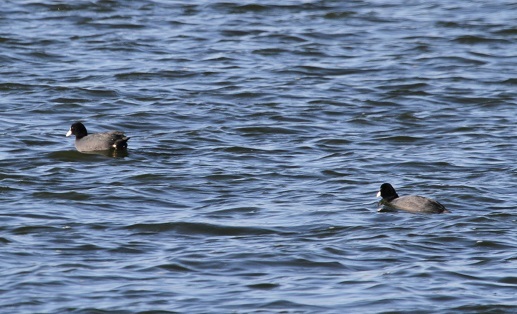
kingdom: Animalia
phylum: Chordata
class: Aves
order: Gruiformes
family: Rallidae
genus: Fulica
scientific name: Fulica atra
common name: Eurasian coot
